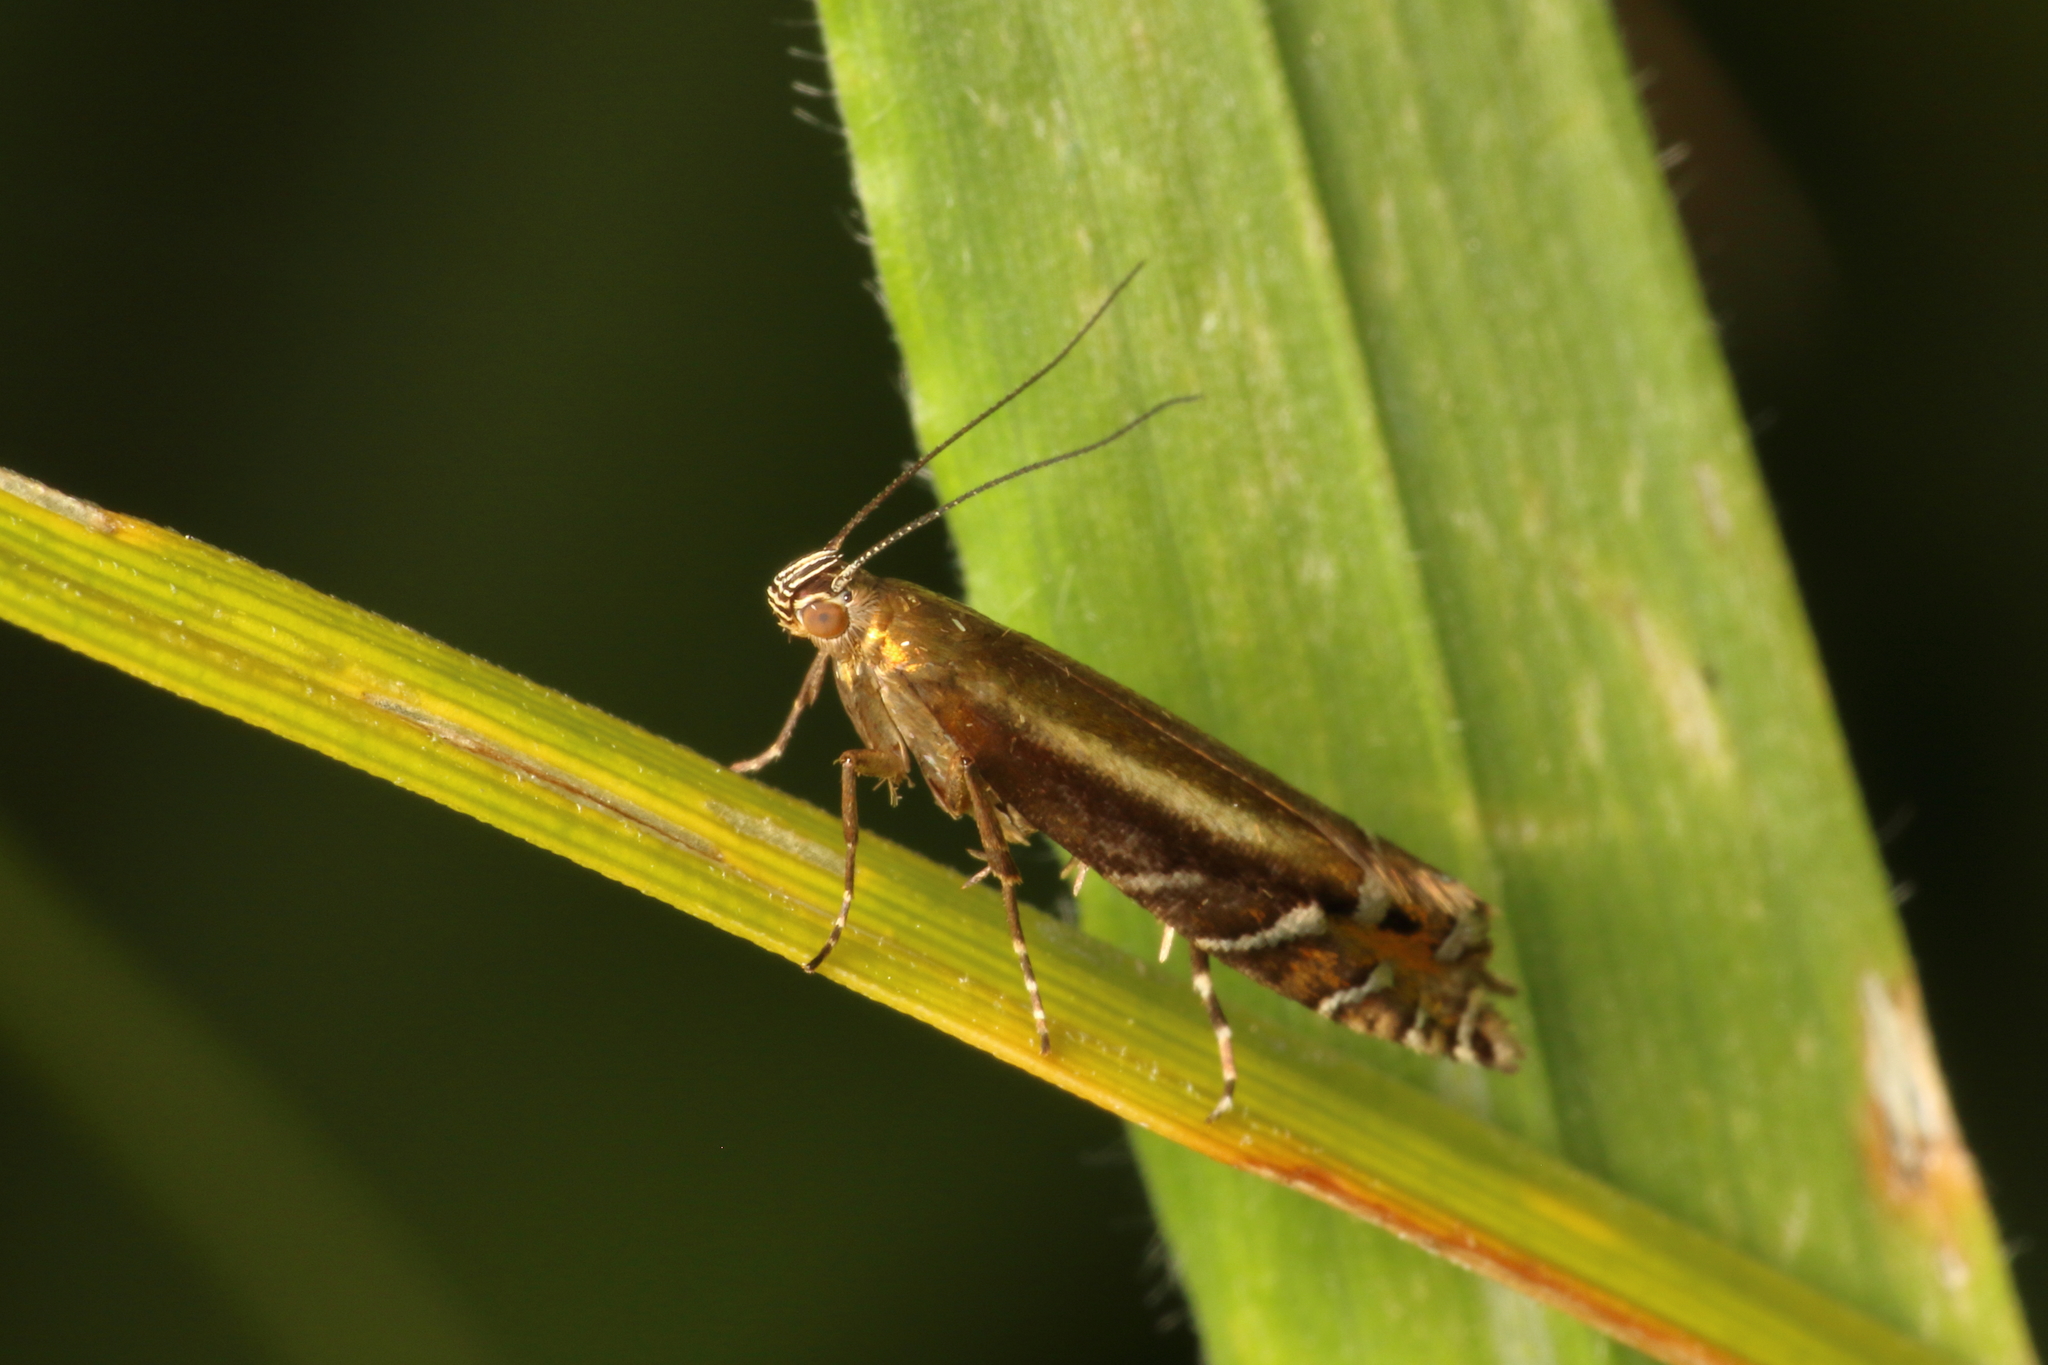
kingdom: Animalia
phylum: Arthropoda
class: Insecta
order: Lepidoptera
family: Glyphipterigidae
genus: Glyphipterix
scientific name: Glyphipterix scintilella
